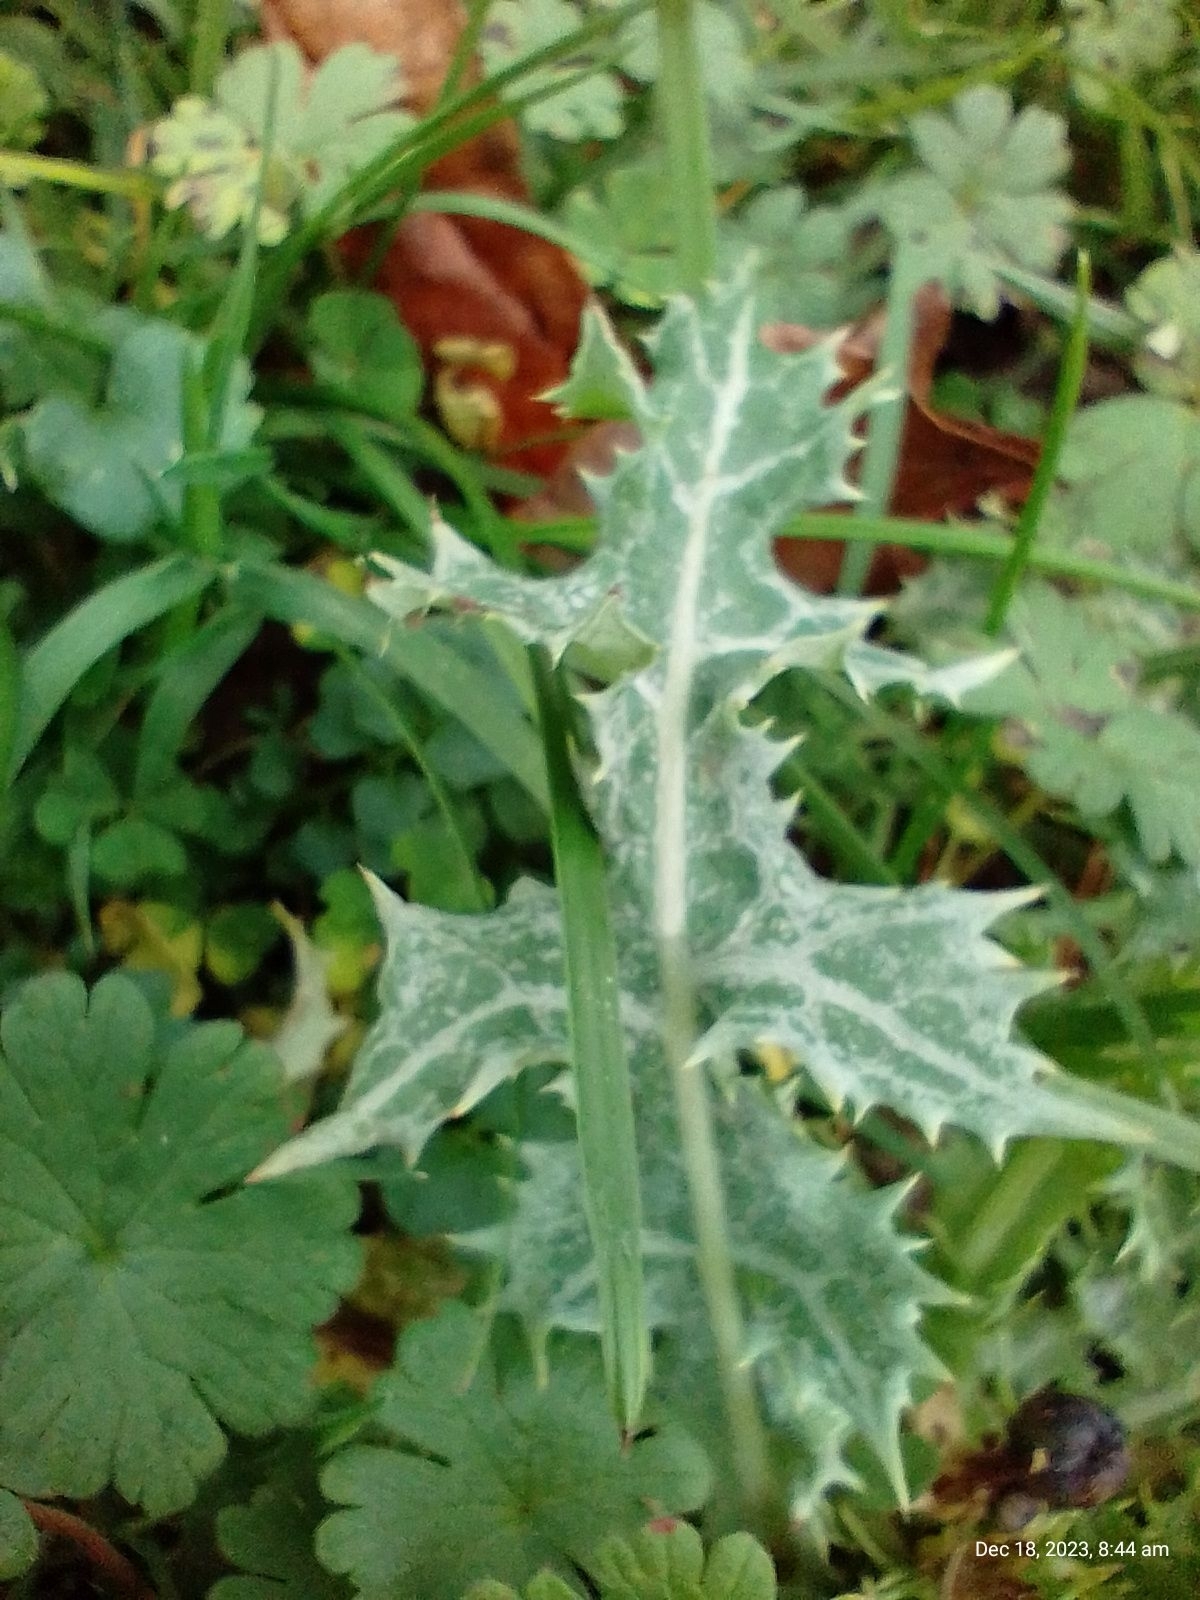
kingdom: Plantae
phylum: Tracheophyta
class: Magnoliopsida
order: Asterales
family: Asteraceae
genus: Sonchus
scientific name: Sonchus asper
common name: Prickly sow-thistle
